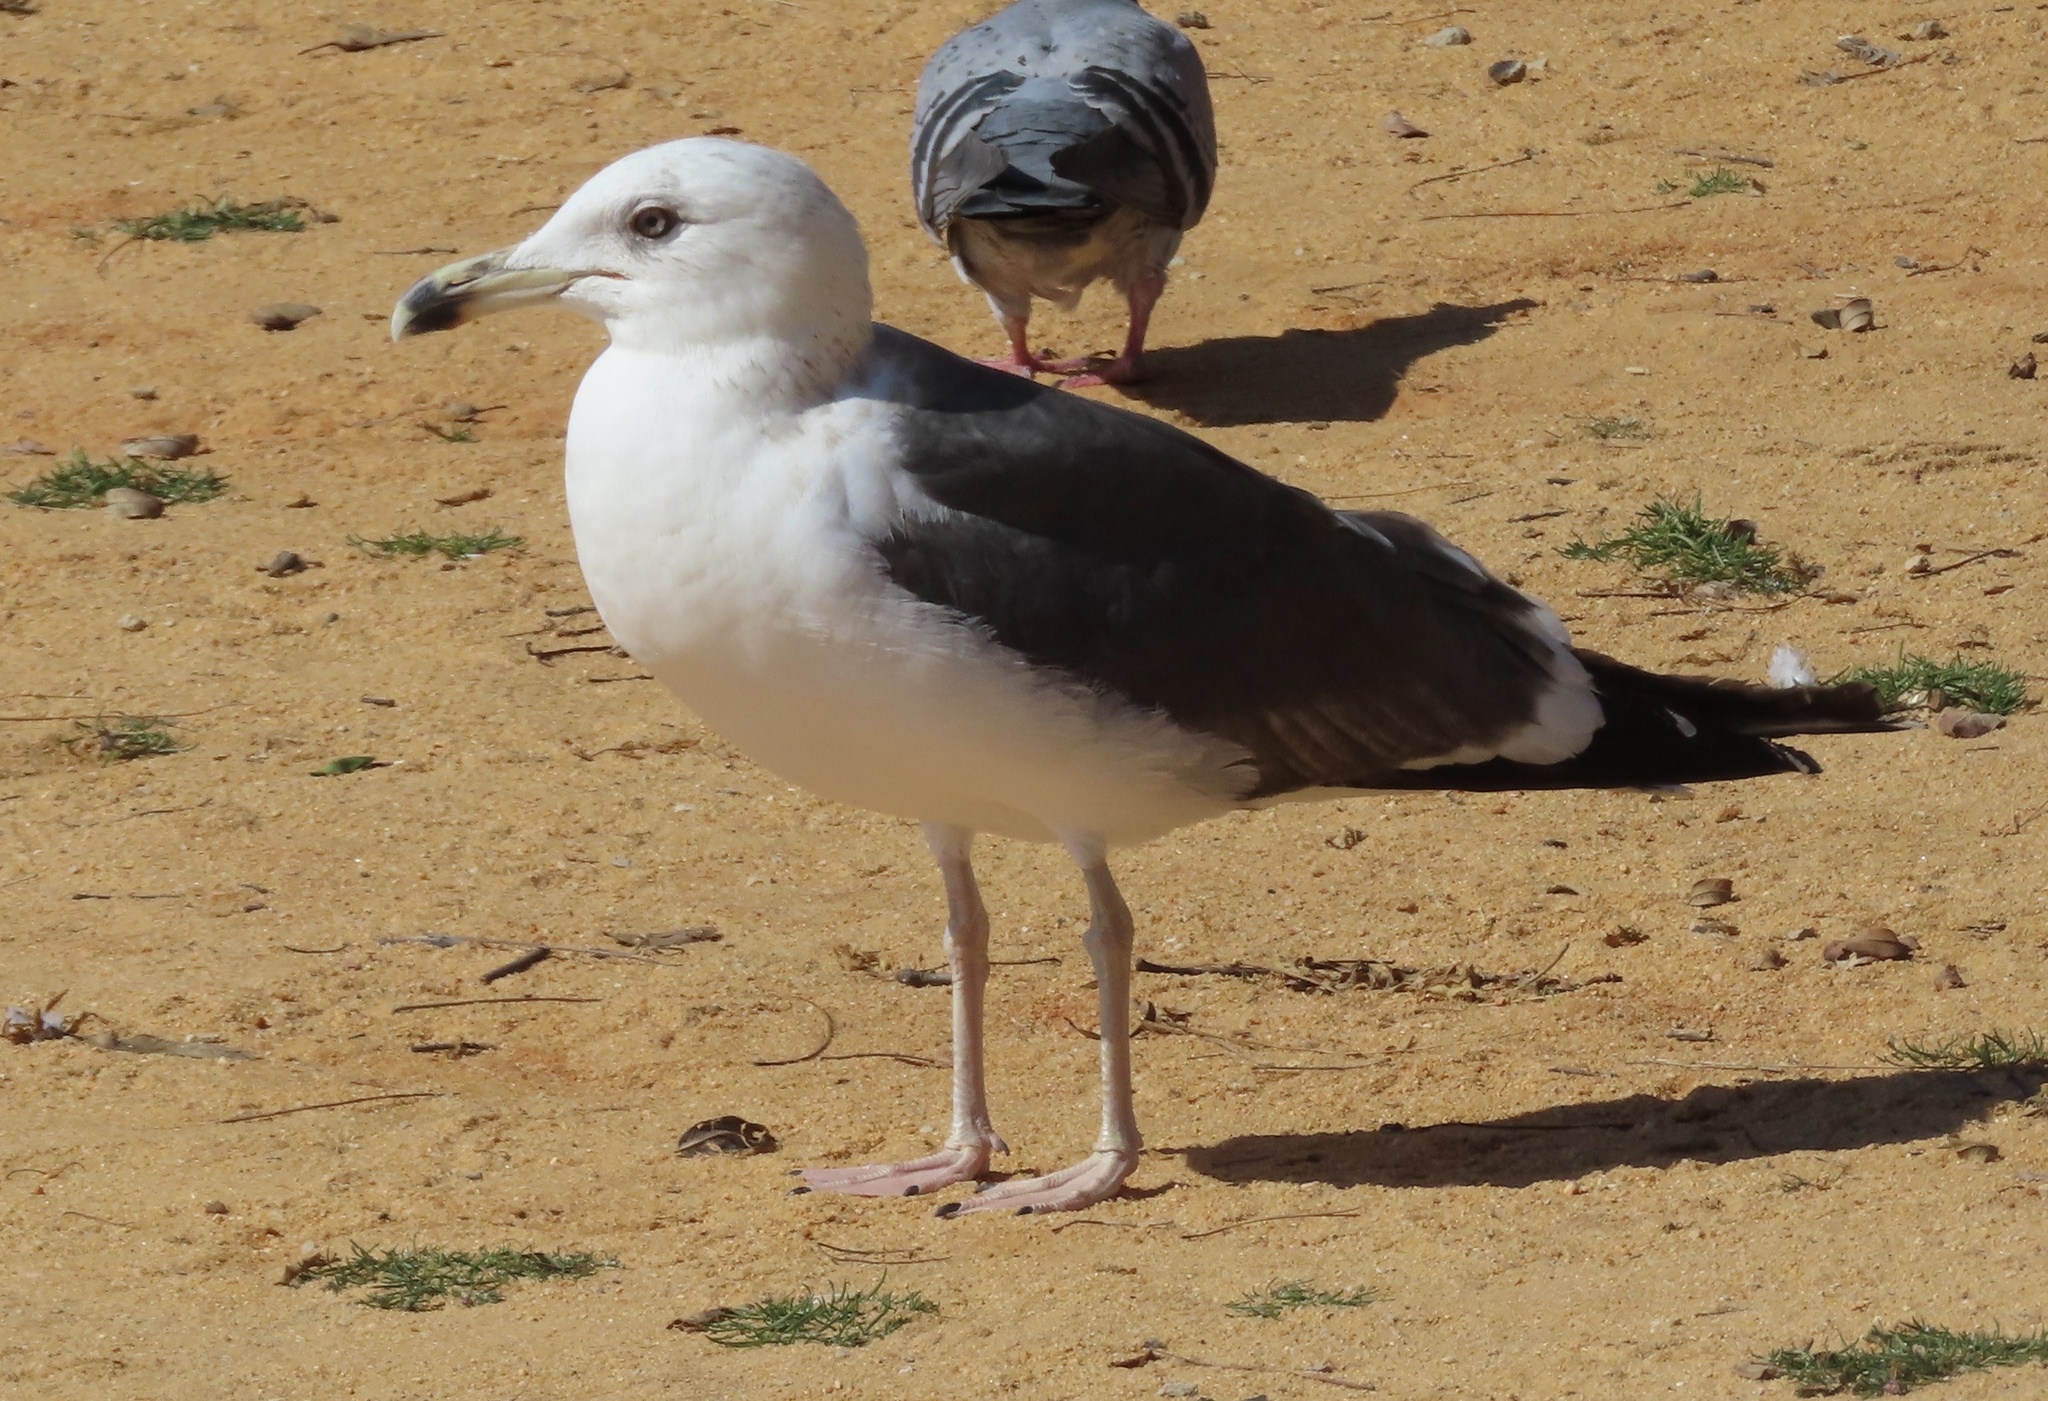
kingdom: Animalia
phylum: Chordata
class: Aves
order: Charadriiformes
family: Laridae
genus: Larus
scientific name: Larus fuscus
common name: Lesser black-backed gull
